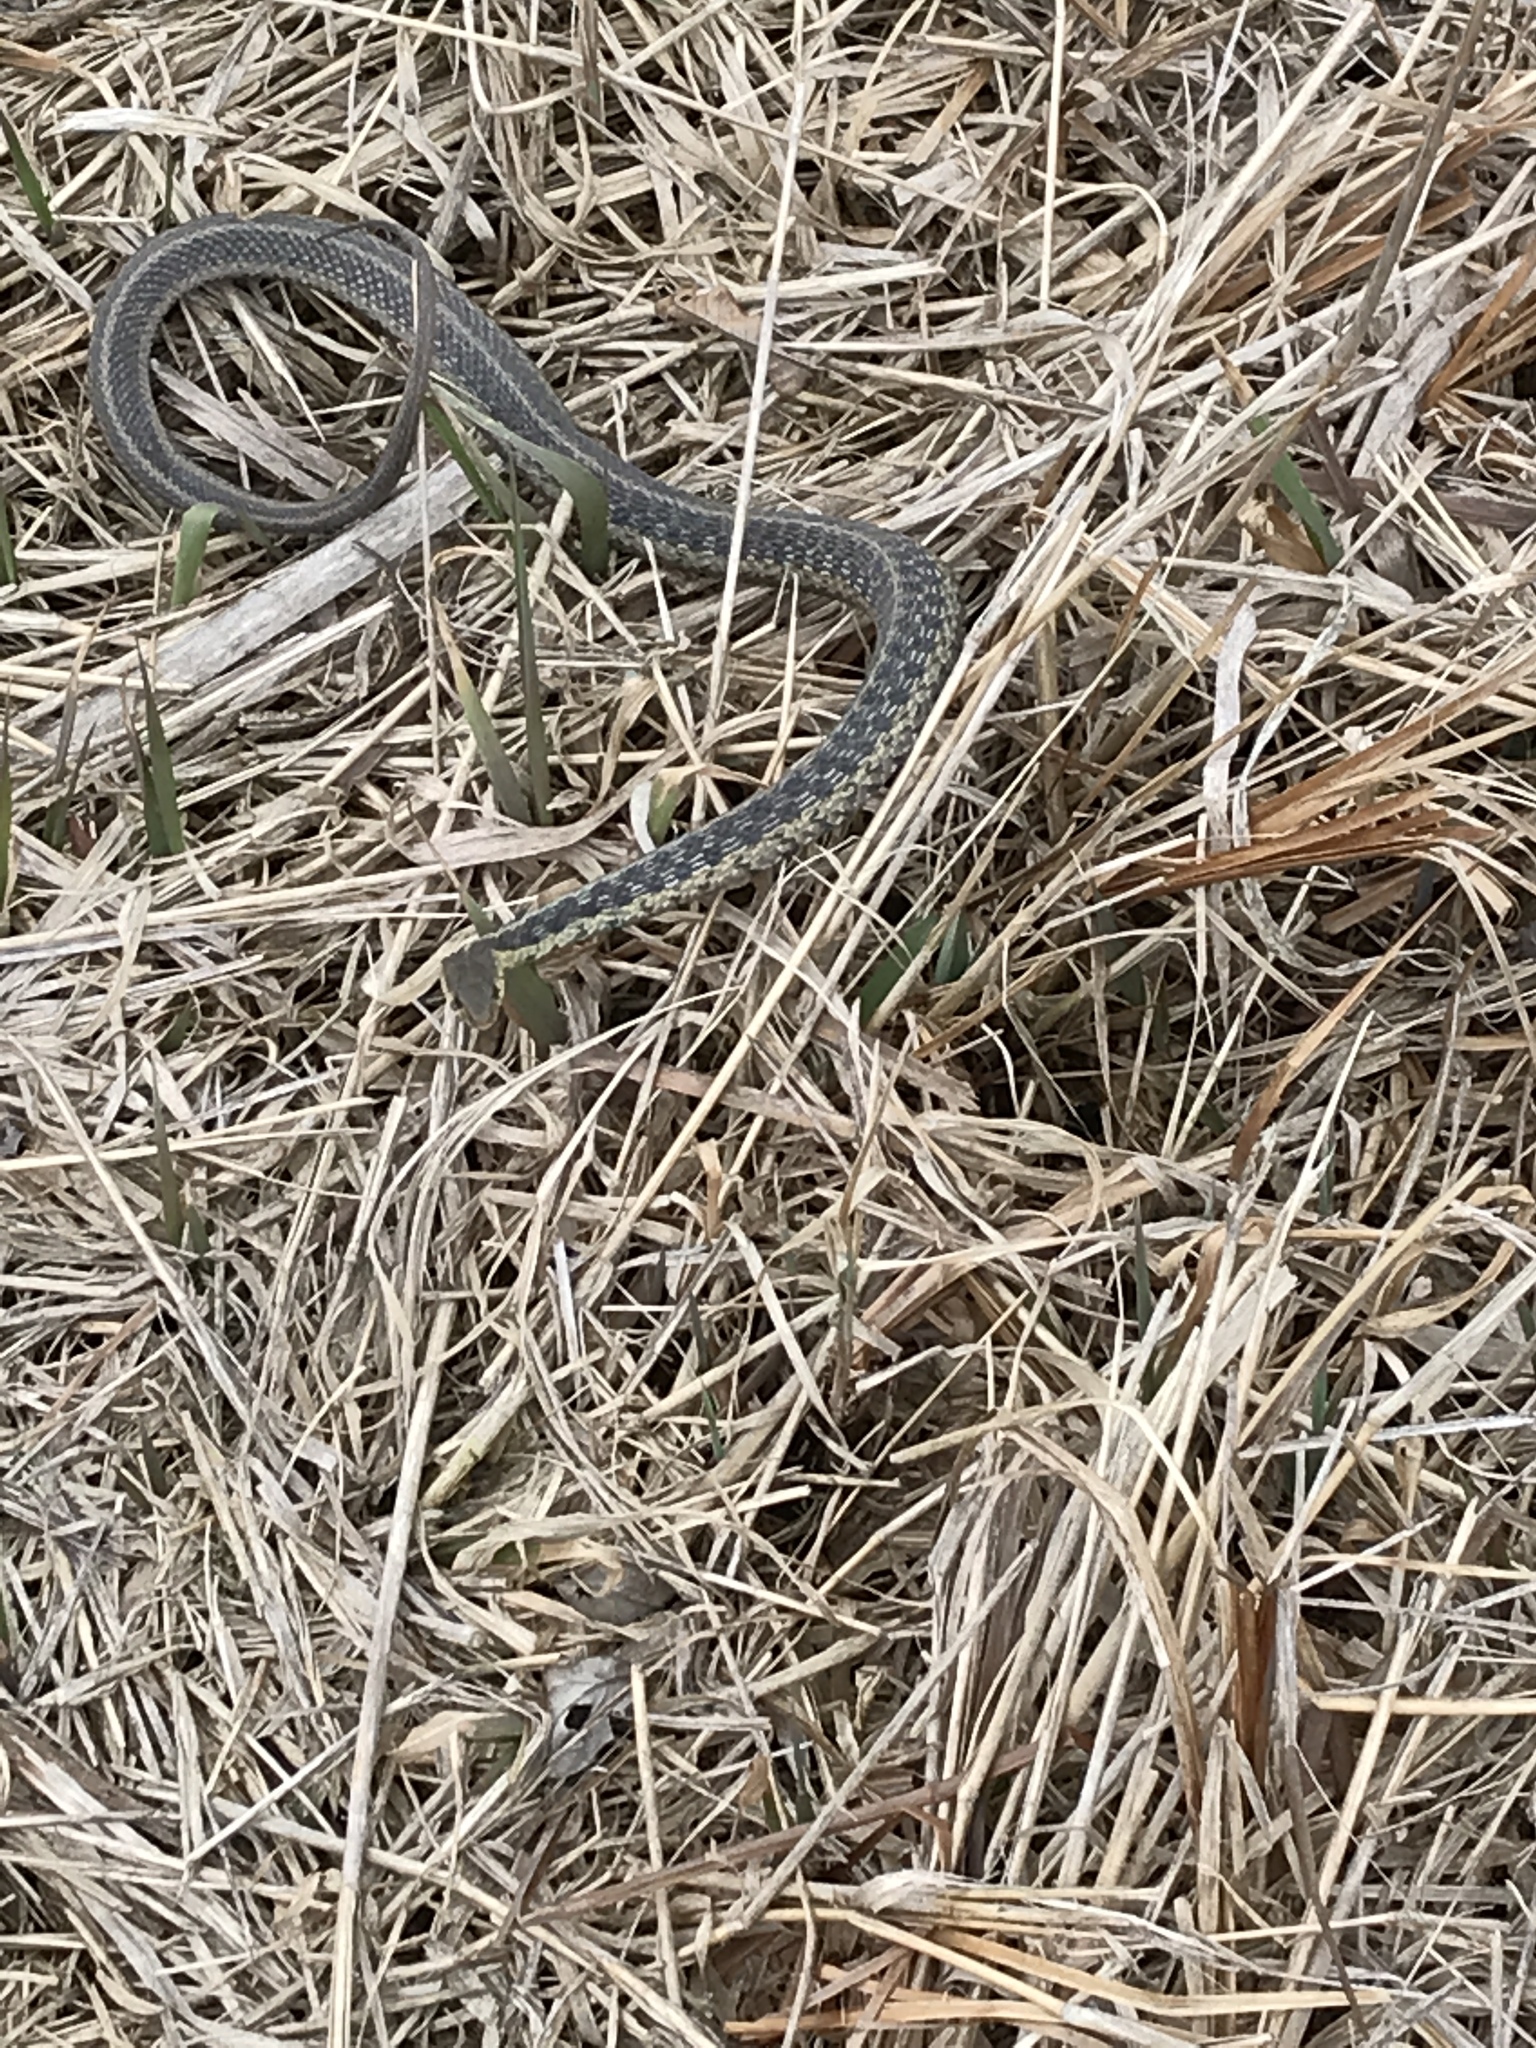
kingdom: Animalia
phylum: Chordata
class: Squamata
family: Colubridae
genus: Thamnophis
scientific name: Thamnophis sirtalis
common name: Common garter snake
